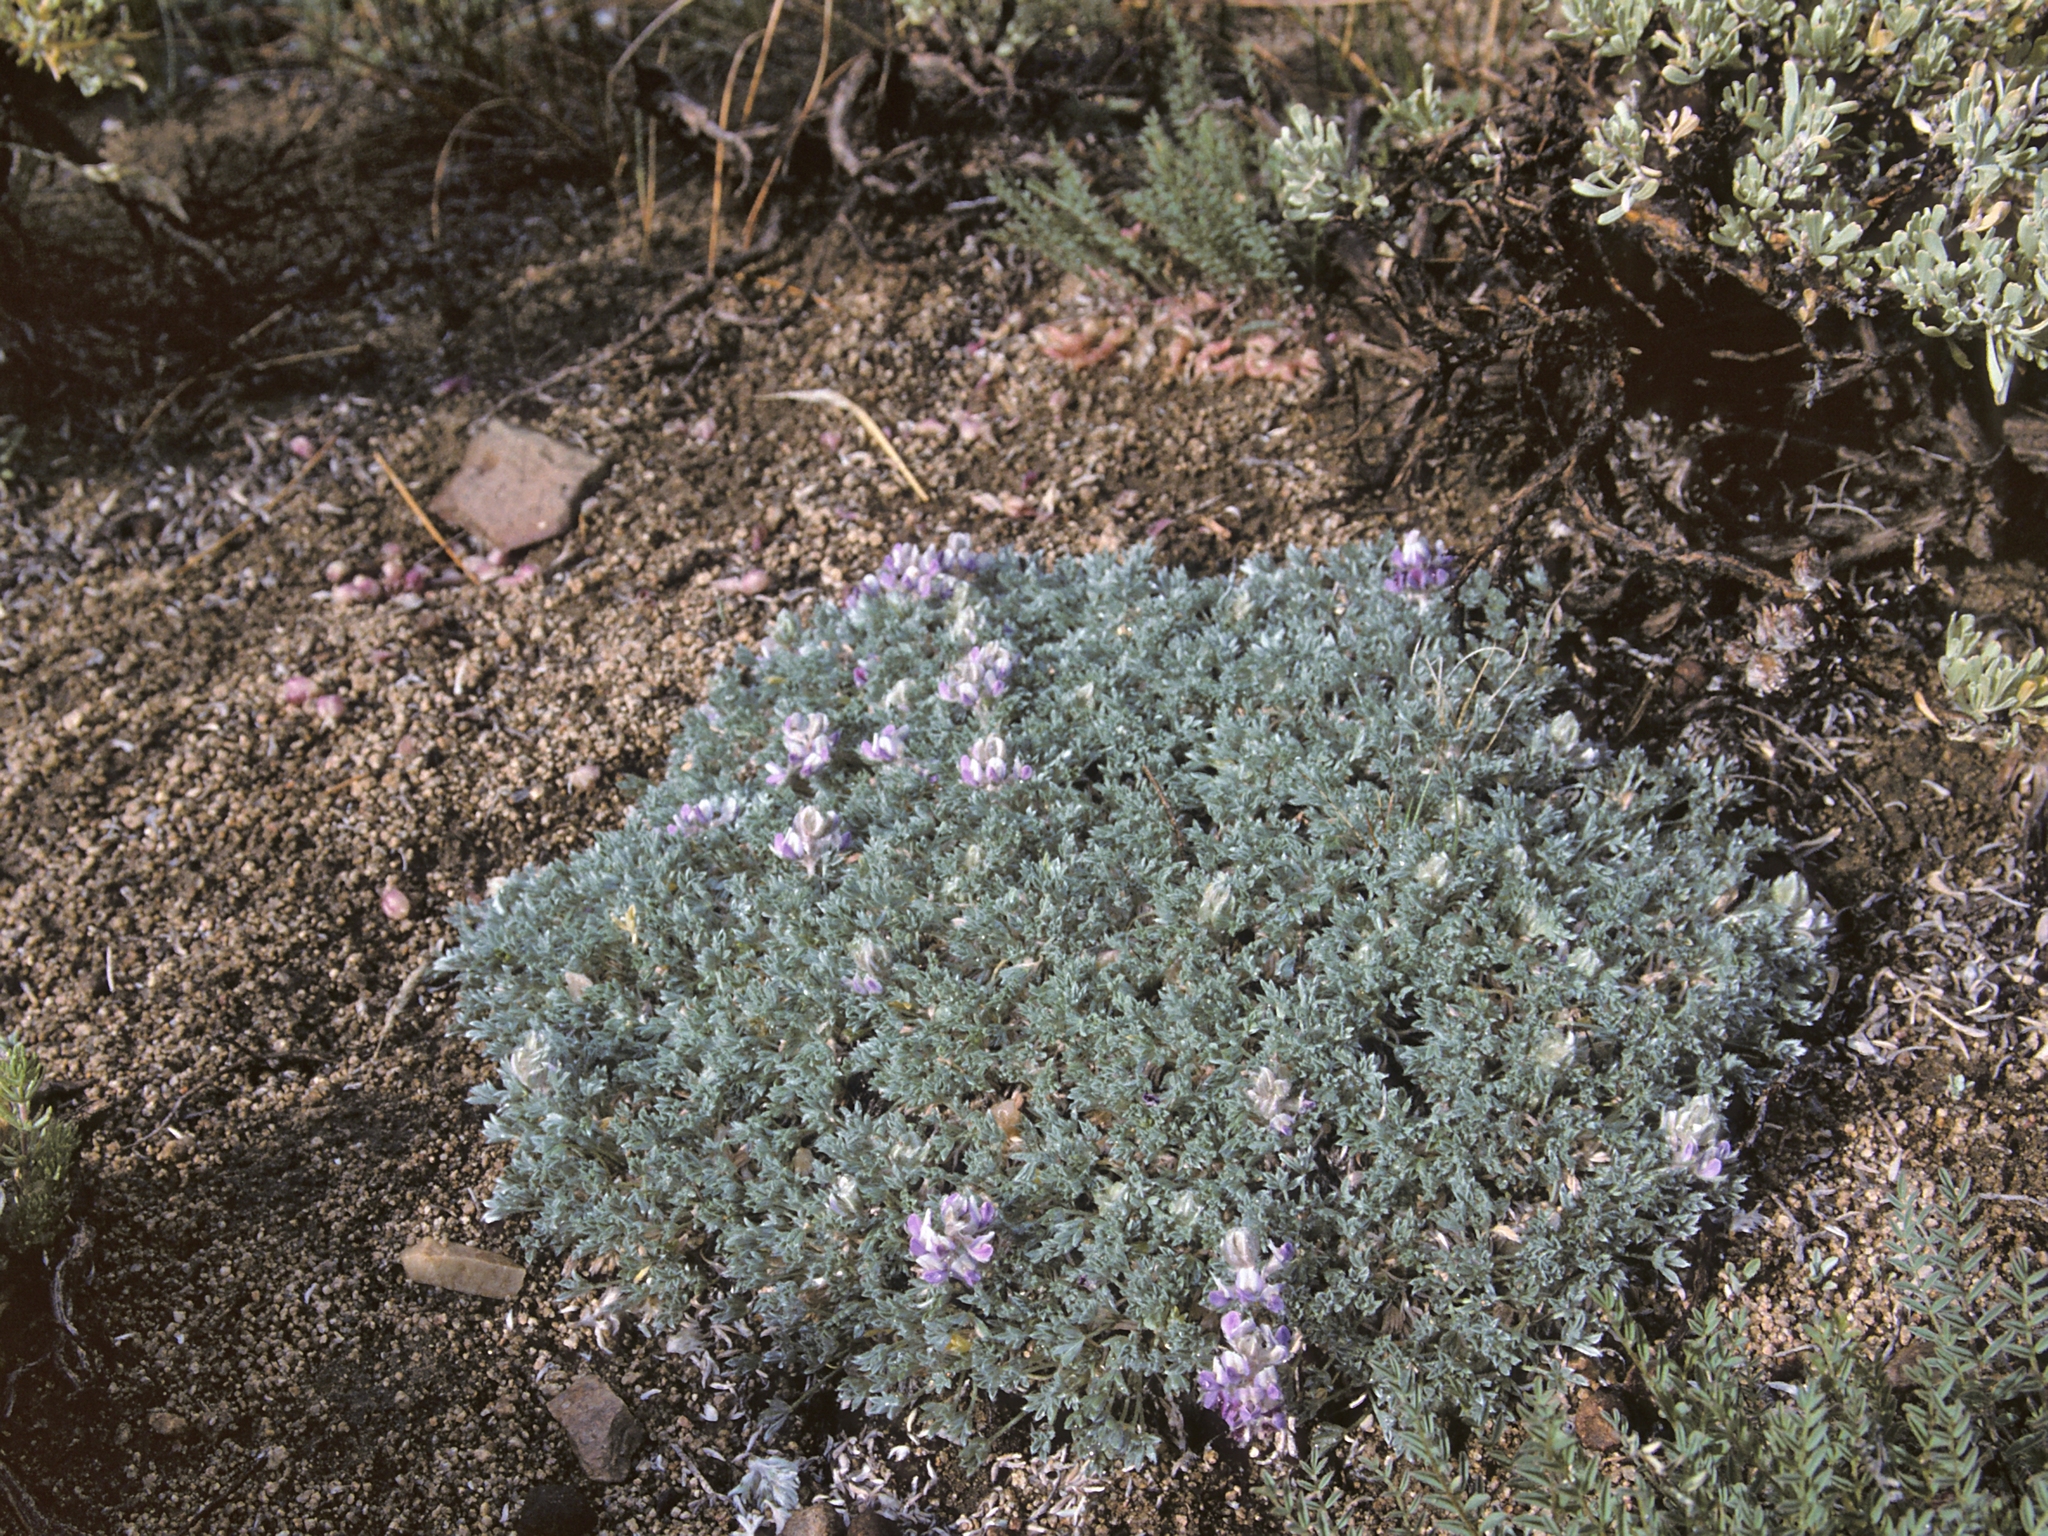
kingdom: Plantae
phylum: Tracheophyta
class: Magnoliopsida
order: Fabales
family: Fabaceae
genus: Lupinus
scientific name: Lupinus breweri
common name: Brewer's lupine
